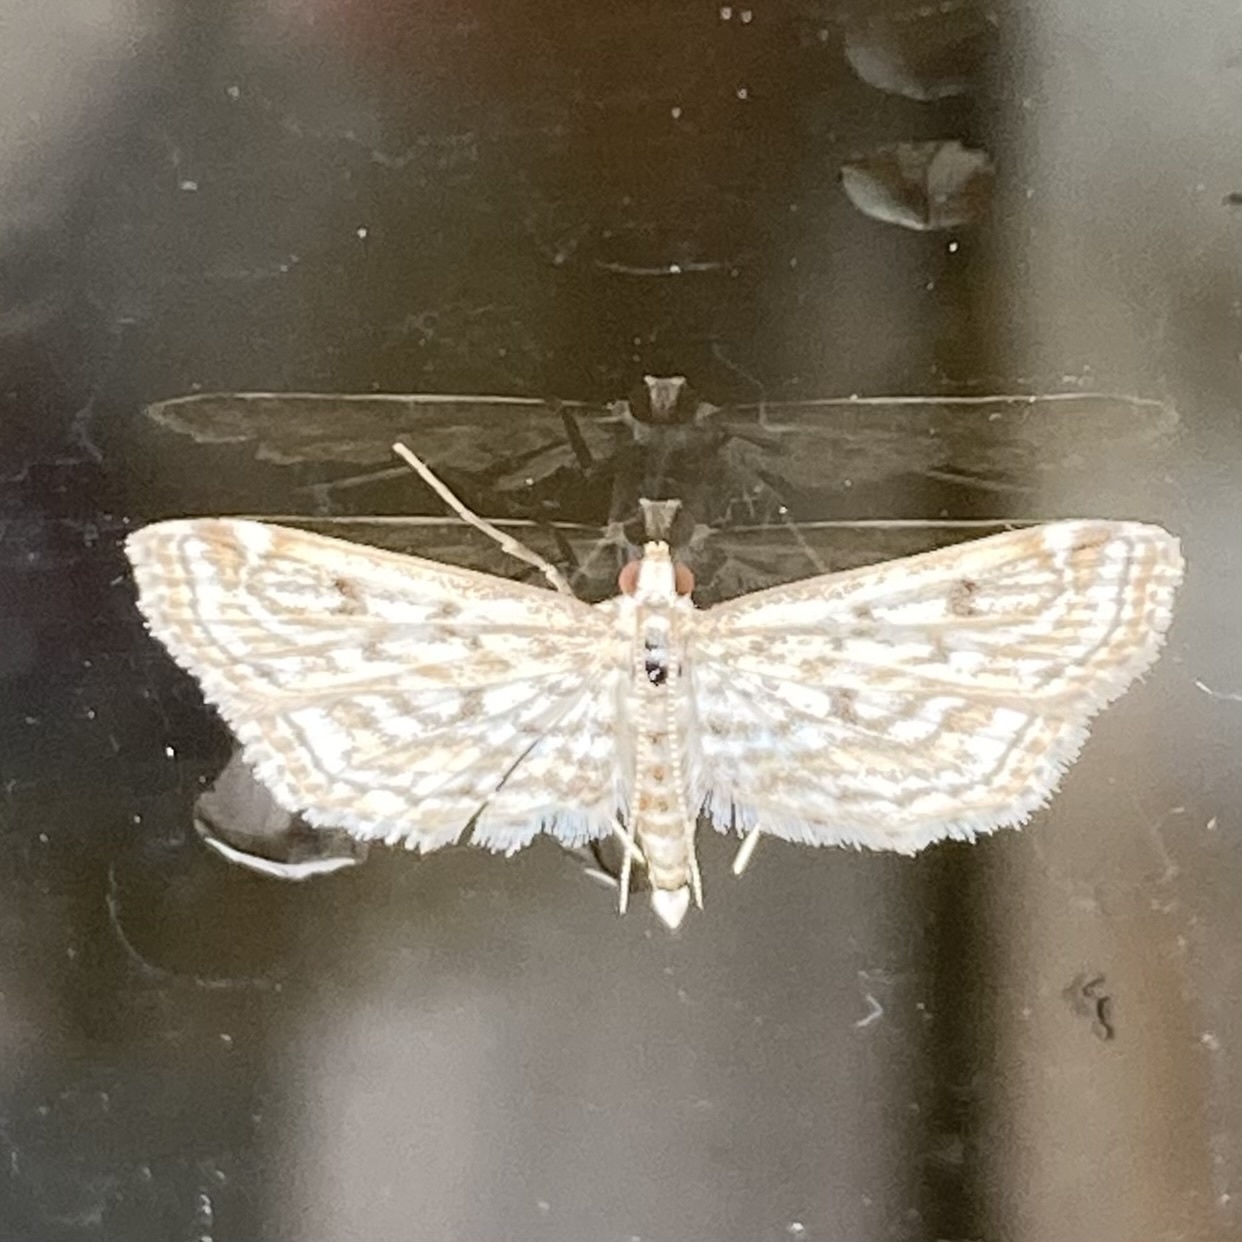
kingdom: Animalia
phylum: Arthropoda
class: Insecta
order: Lepidoptera
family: Crambidae
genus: Parapoynx
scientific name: Parapoynx allionealis
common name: Bladderwort casemaker
